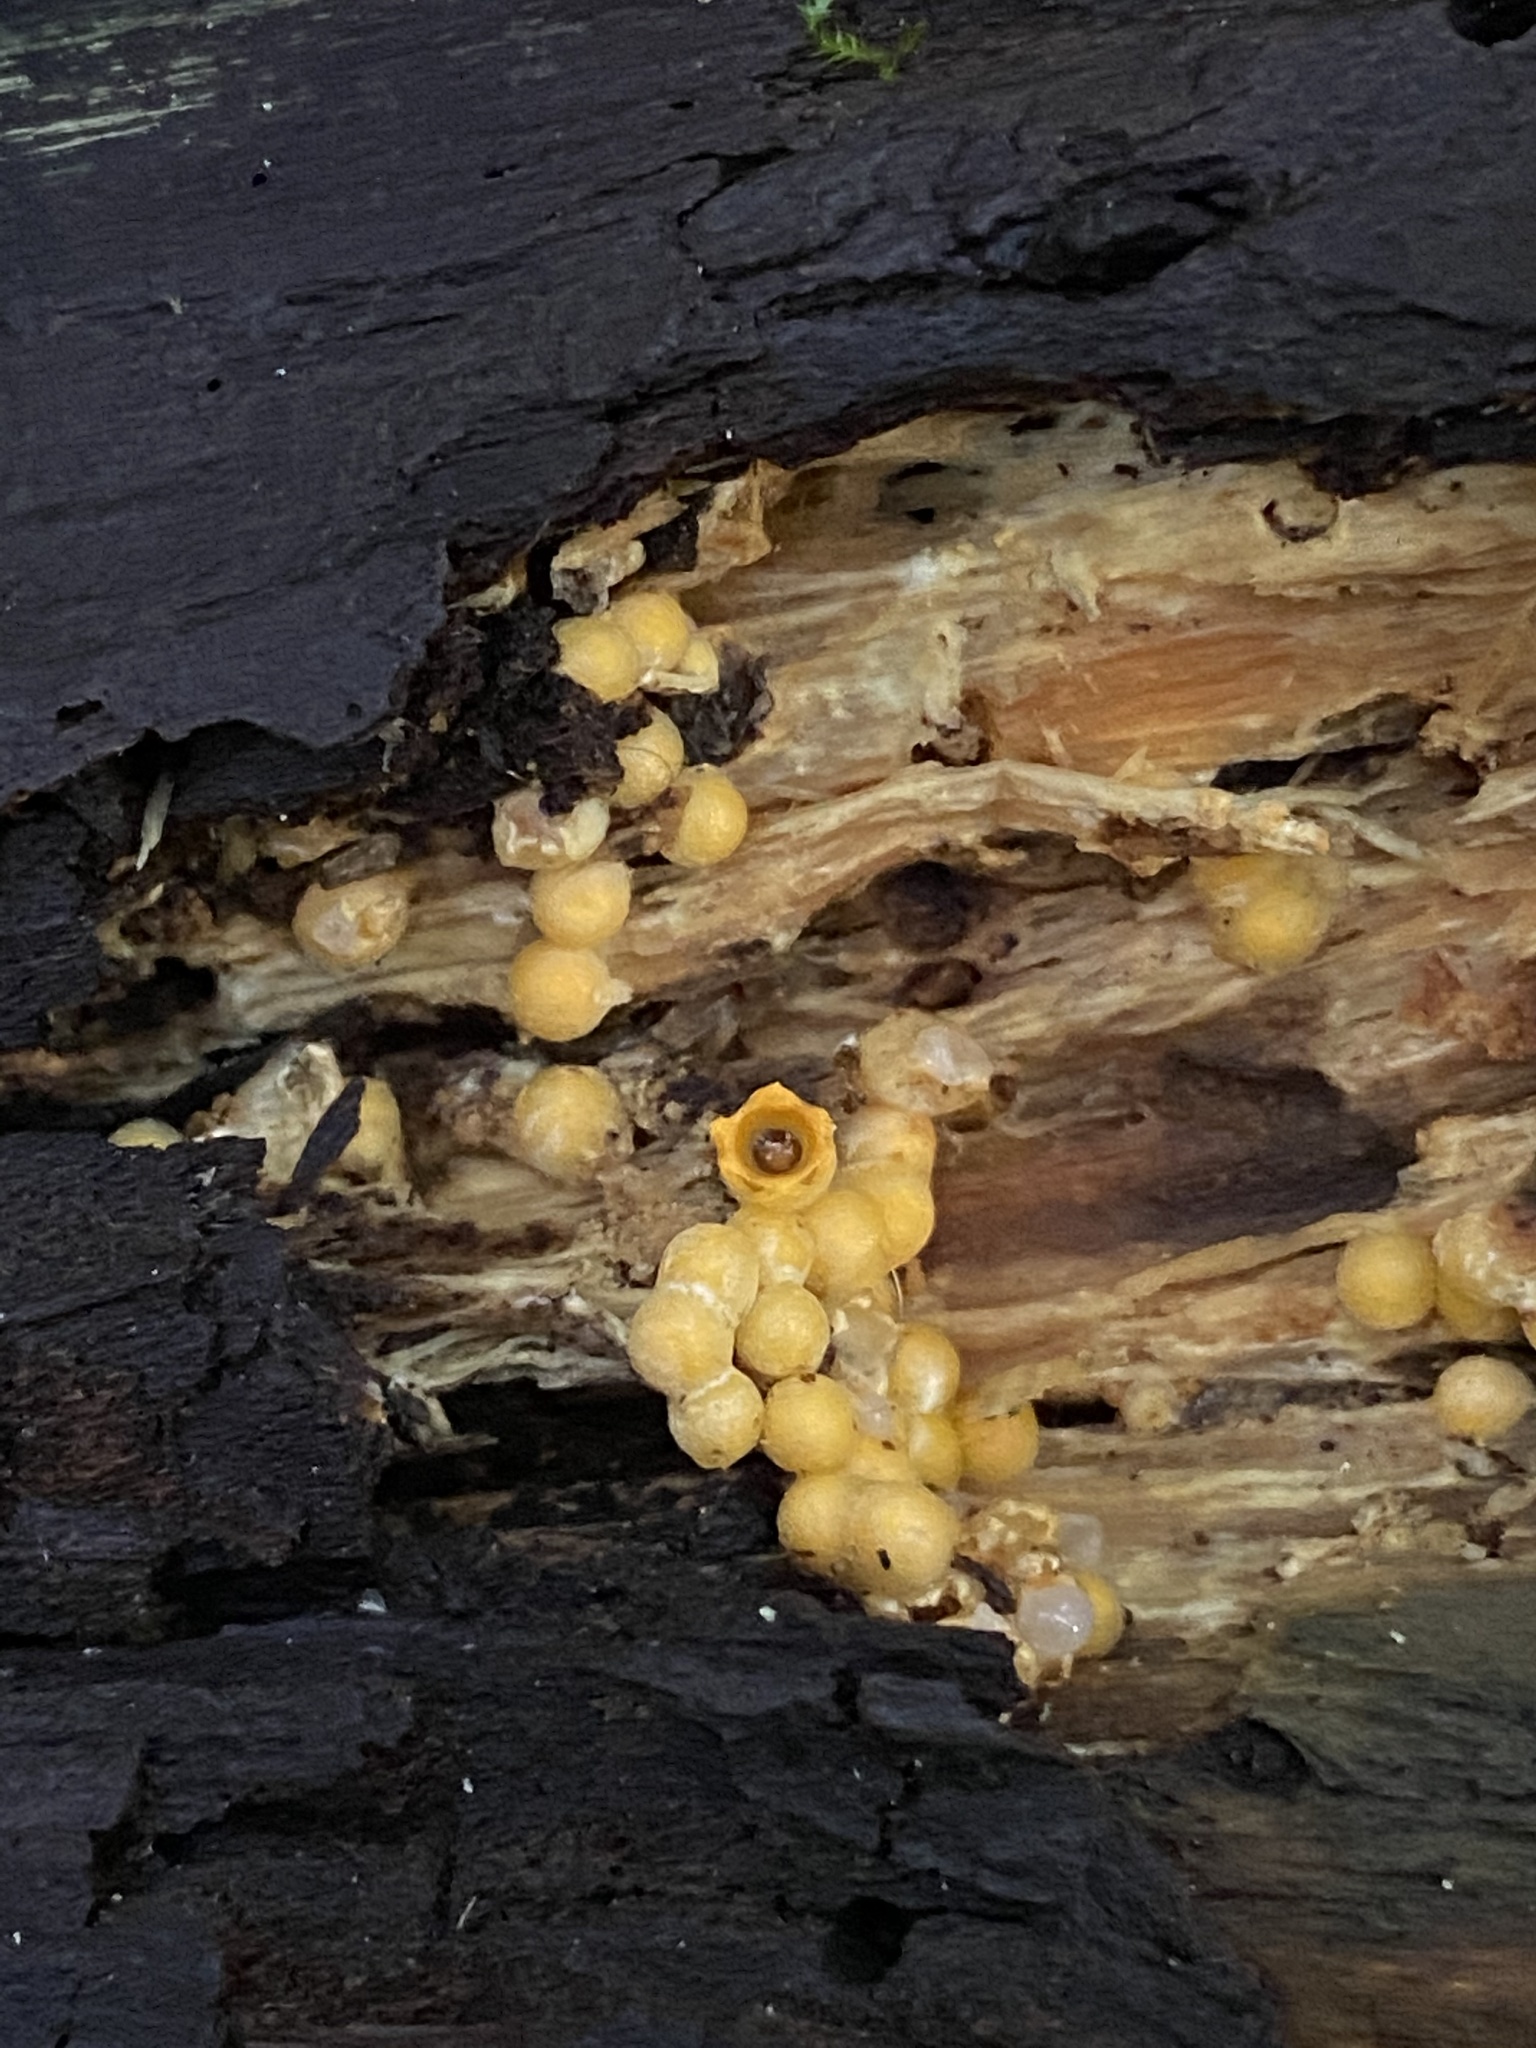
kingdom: Fungi
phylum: Basidiomycota
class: Agaricomycetes
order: Geastrales
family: Geastraceae
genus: Sphaerobolus
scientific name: Sphaerobolus stellatus
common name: Cannon fungus
